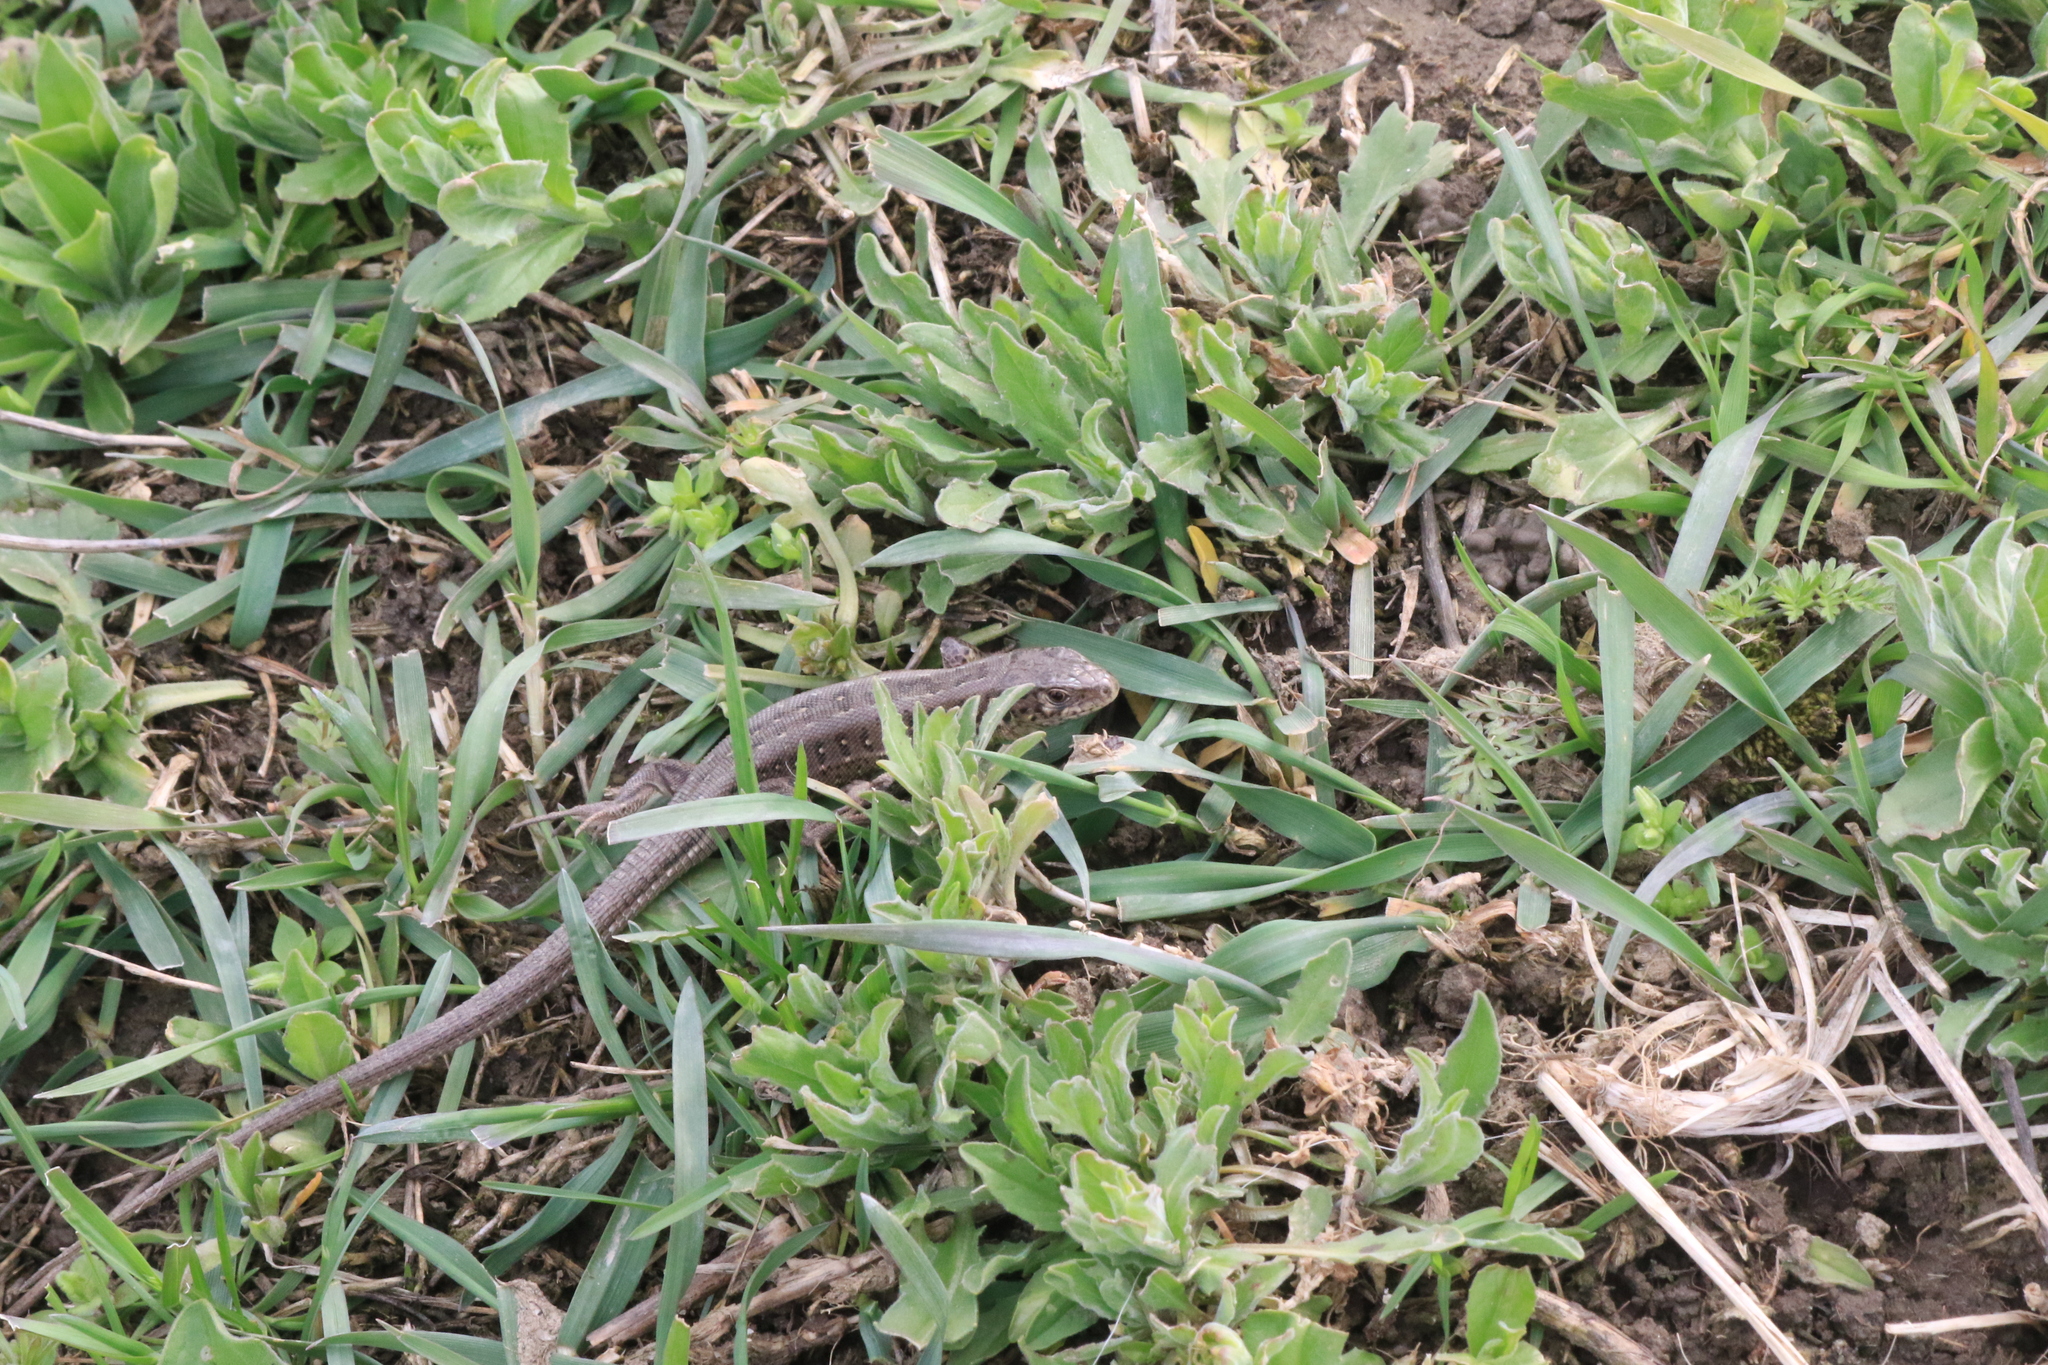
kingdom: Animalia
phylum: Chordata
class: Squamata
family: Lacertidae
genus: Lacerta
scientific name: Lacerta agilis
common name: Sand lizard
